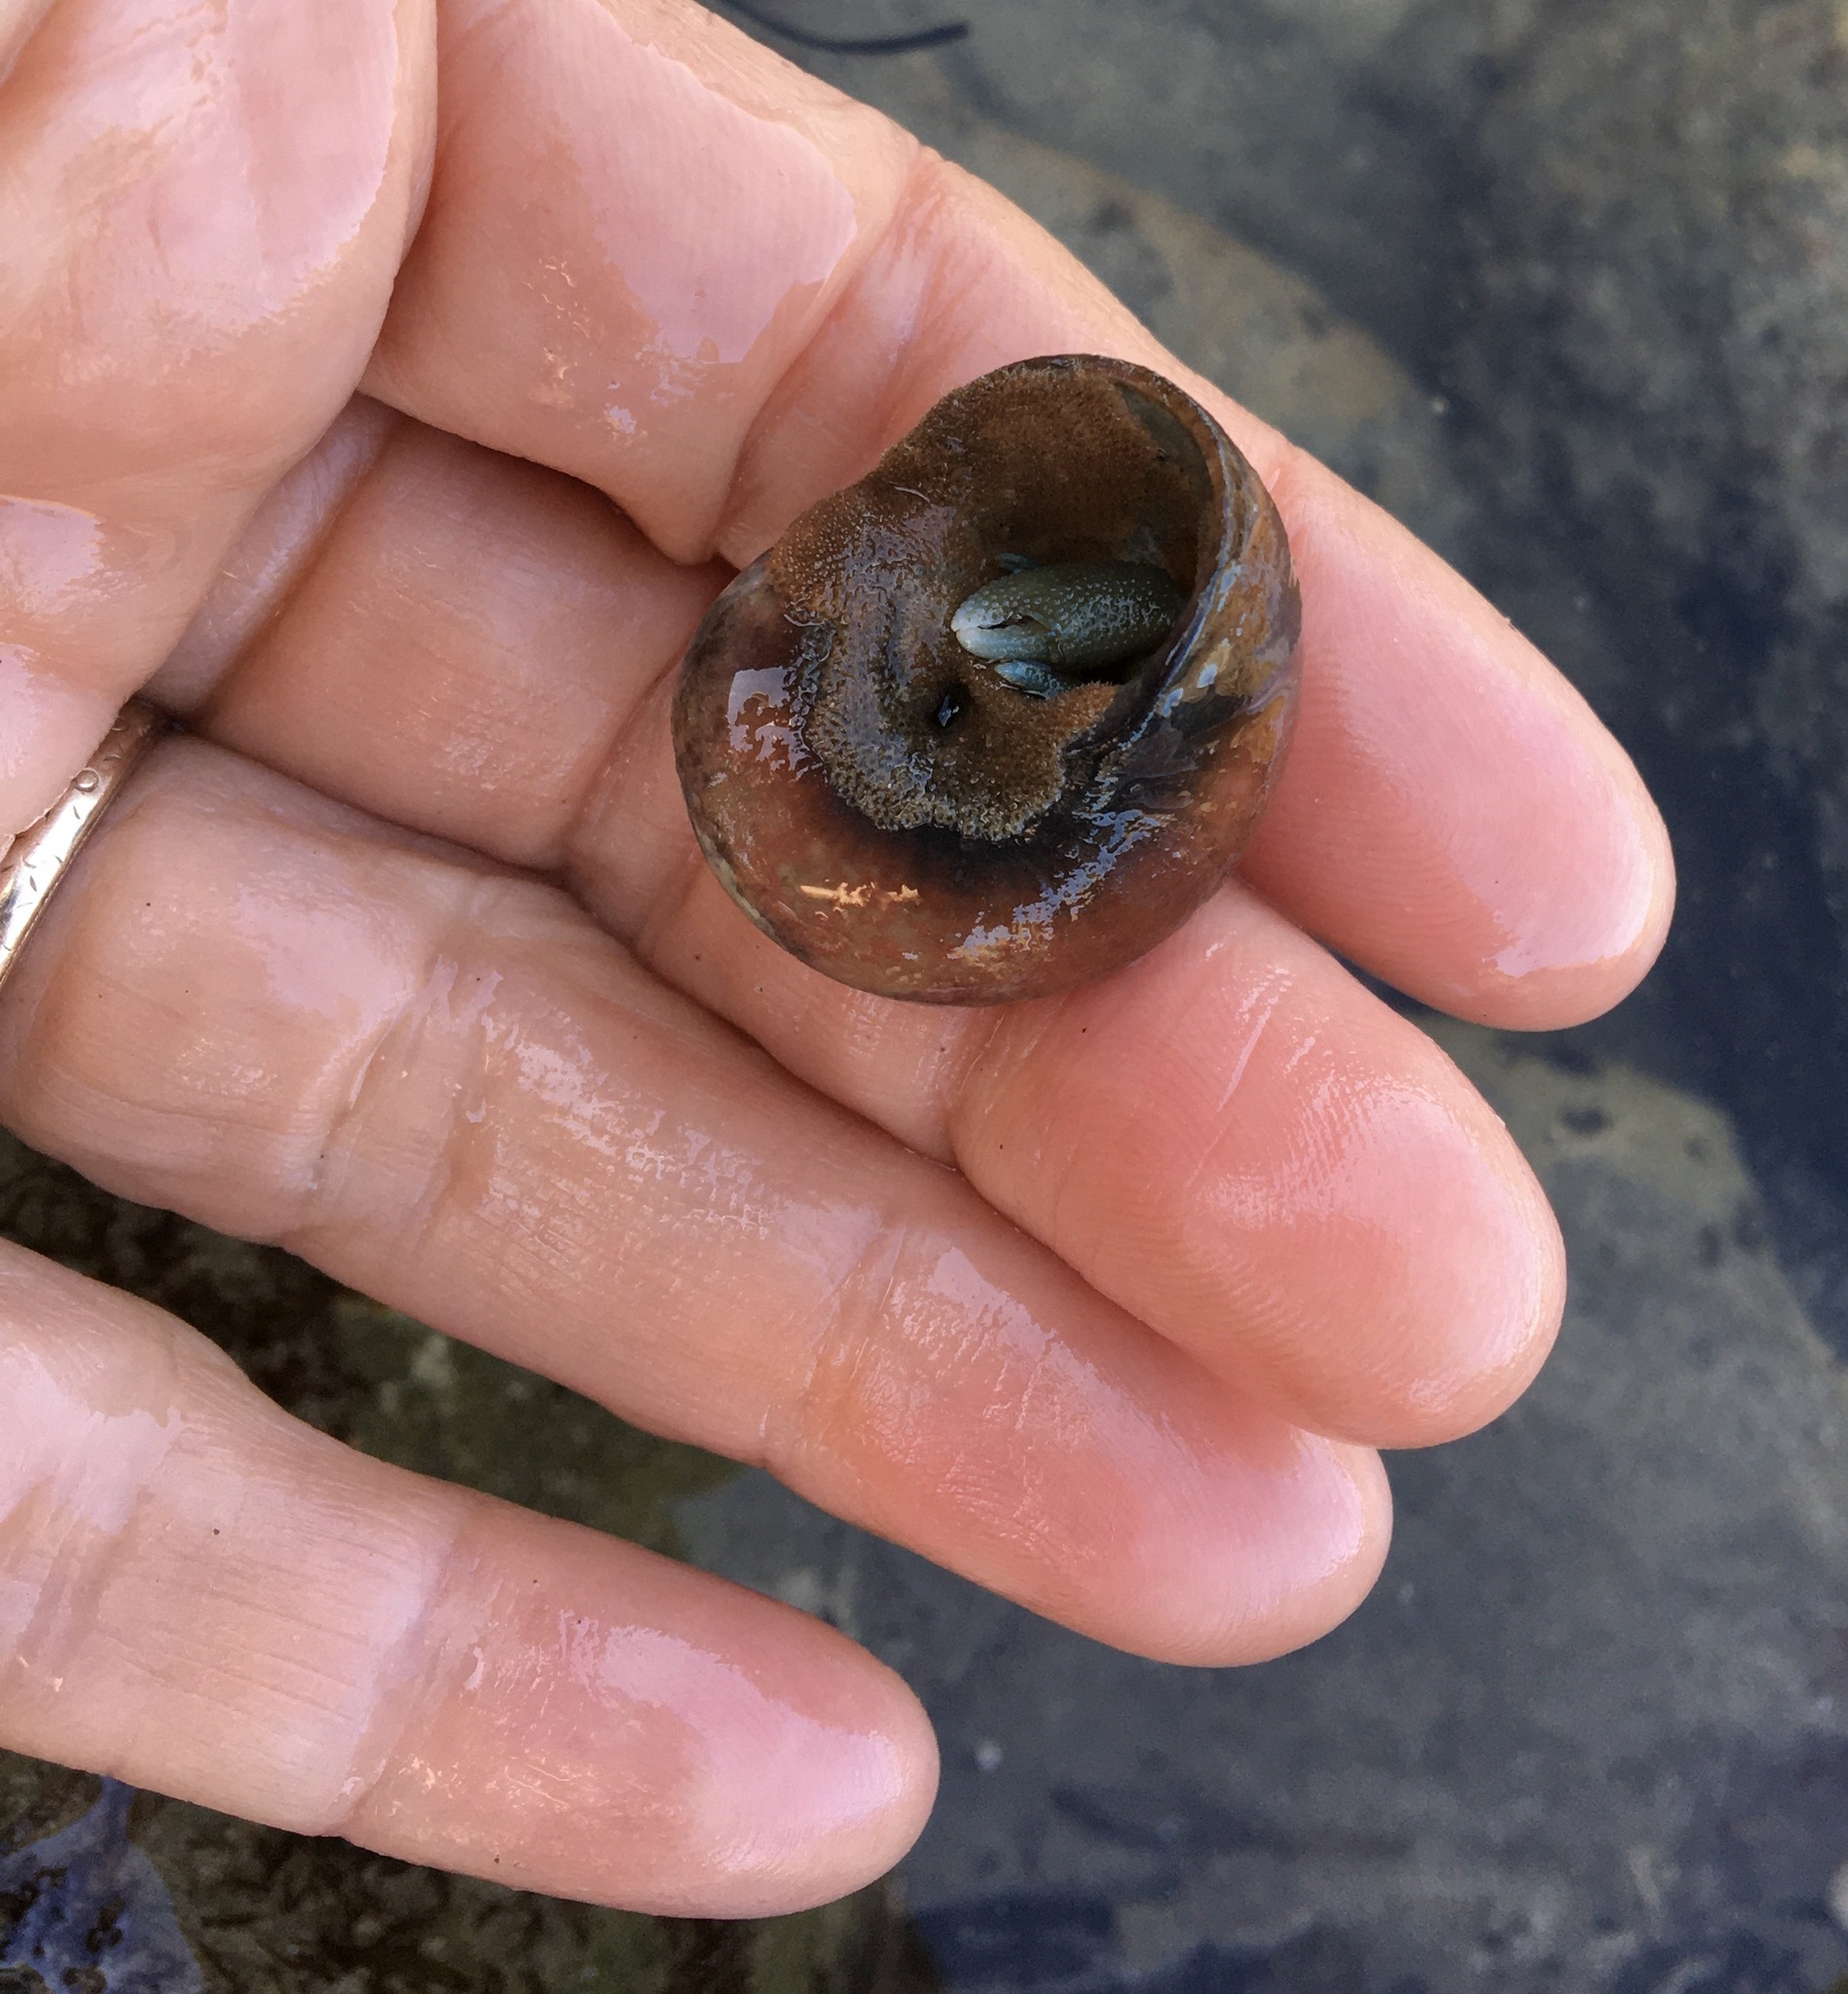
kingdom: Animalia
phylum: Arthropoda
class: Malacostraca
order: Decapoda
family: Paguridae
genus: Pagurus
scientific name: Pagurus samuelis
